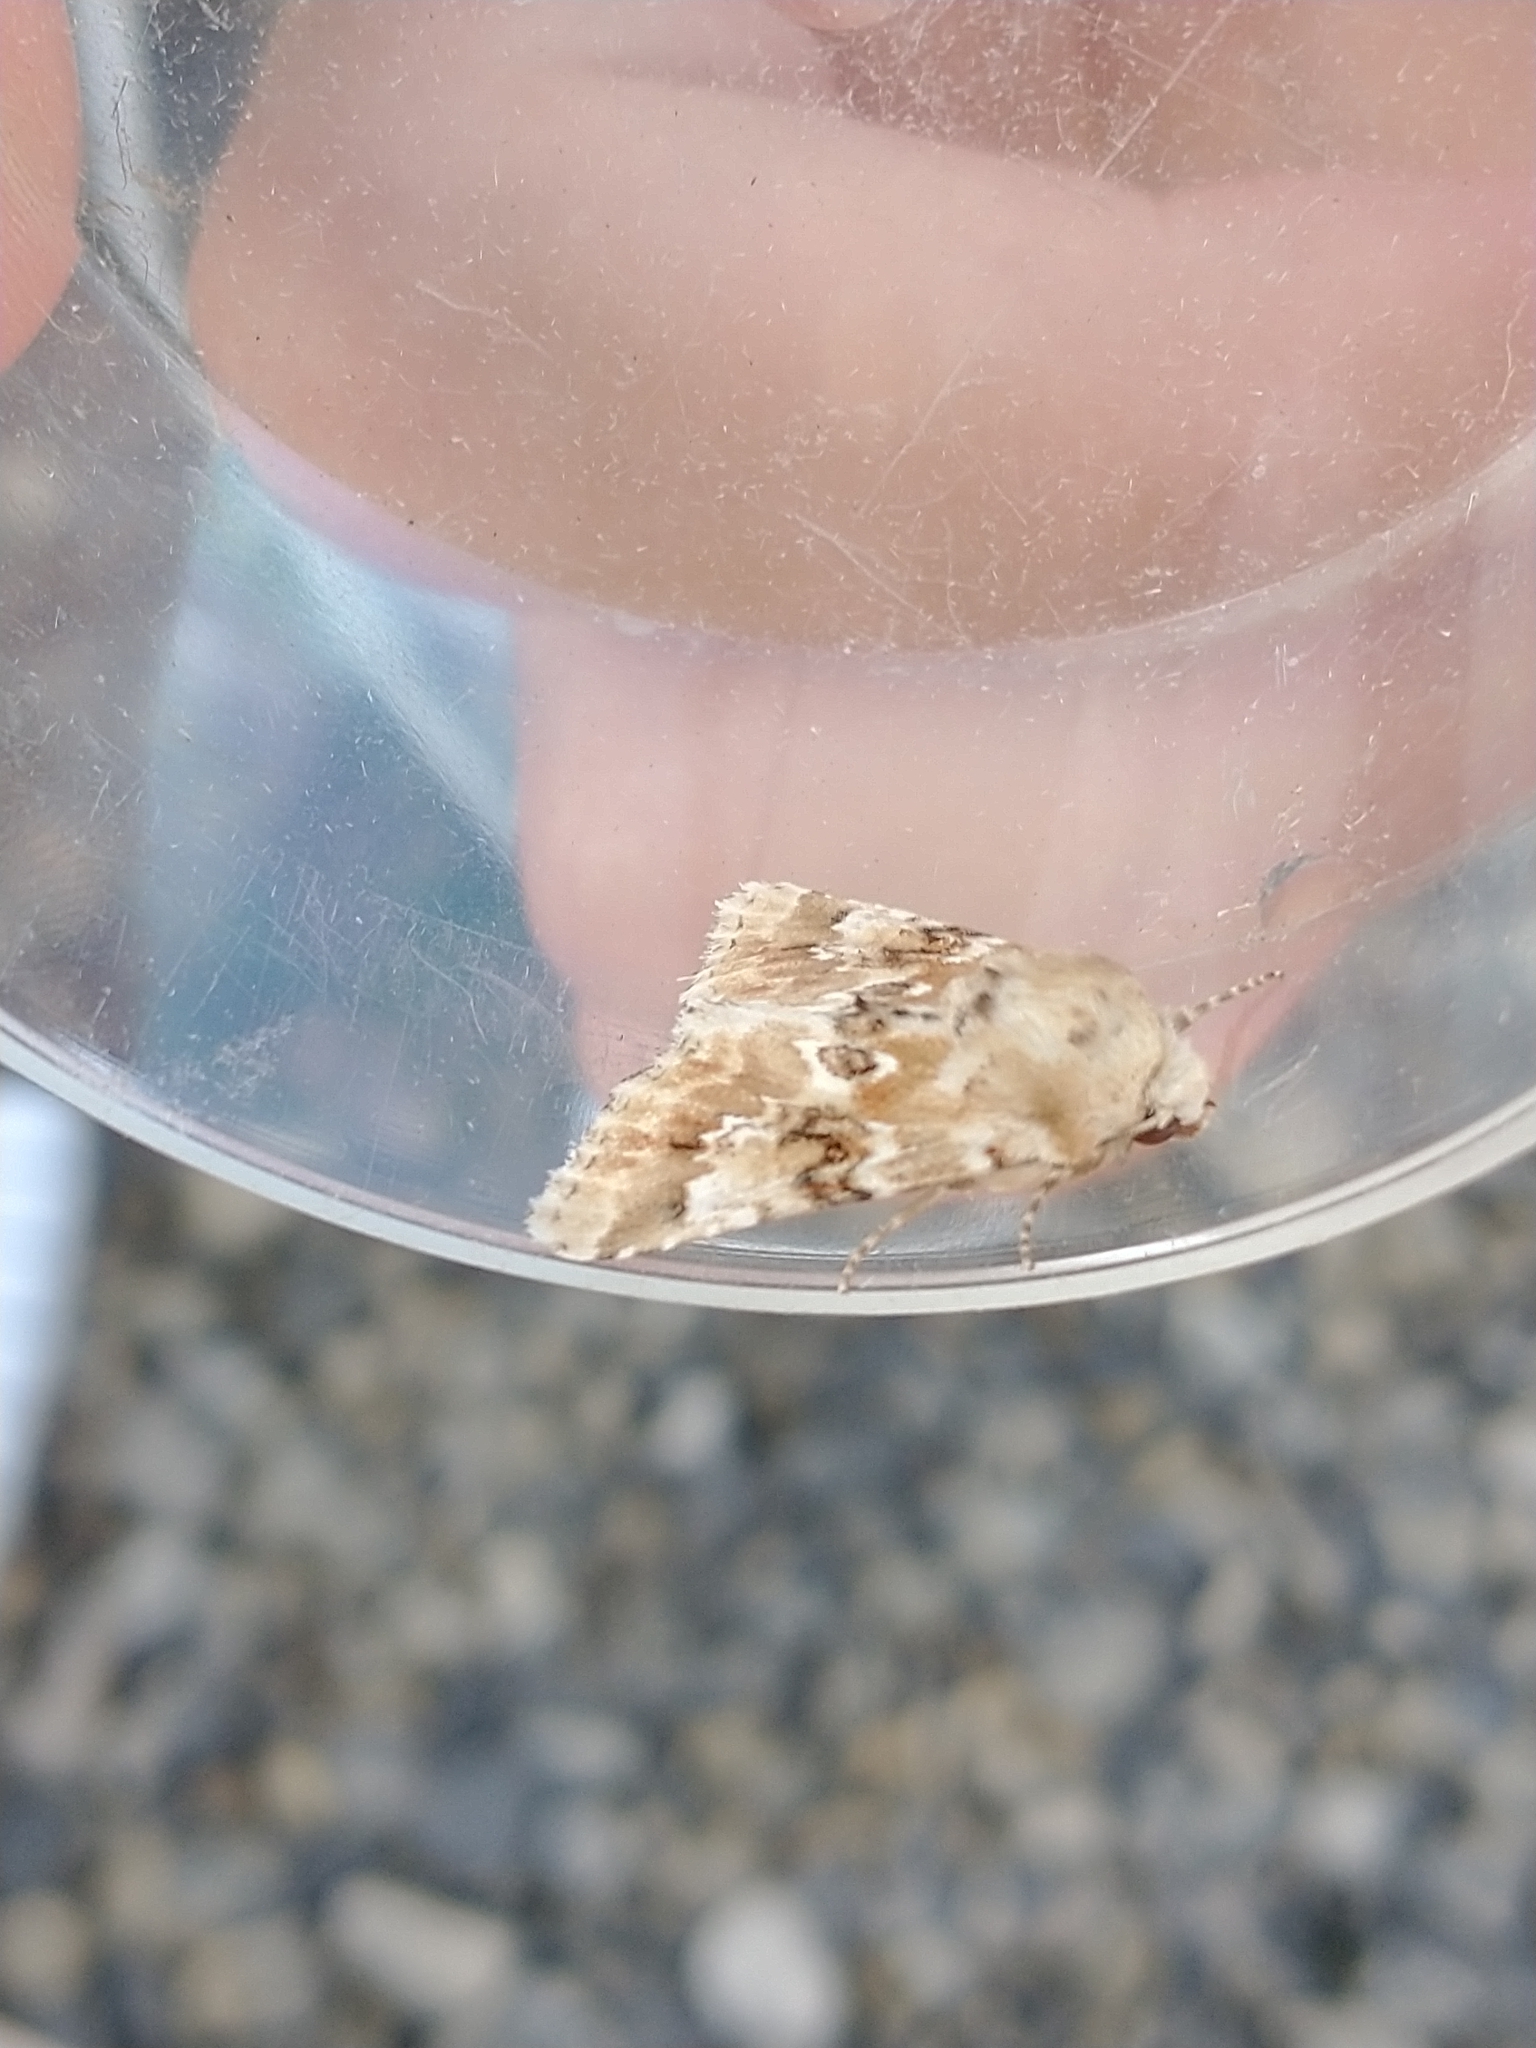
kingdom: Animalia
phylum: Arthropoda
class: Insecta
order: Lepidoptera
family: Noctuidae
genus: Eremobia
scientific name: Eremobia ochroleuca
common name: Dusky sallow
